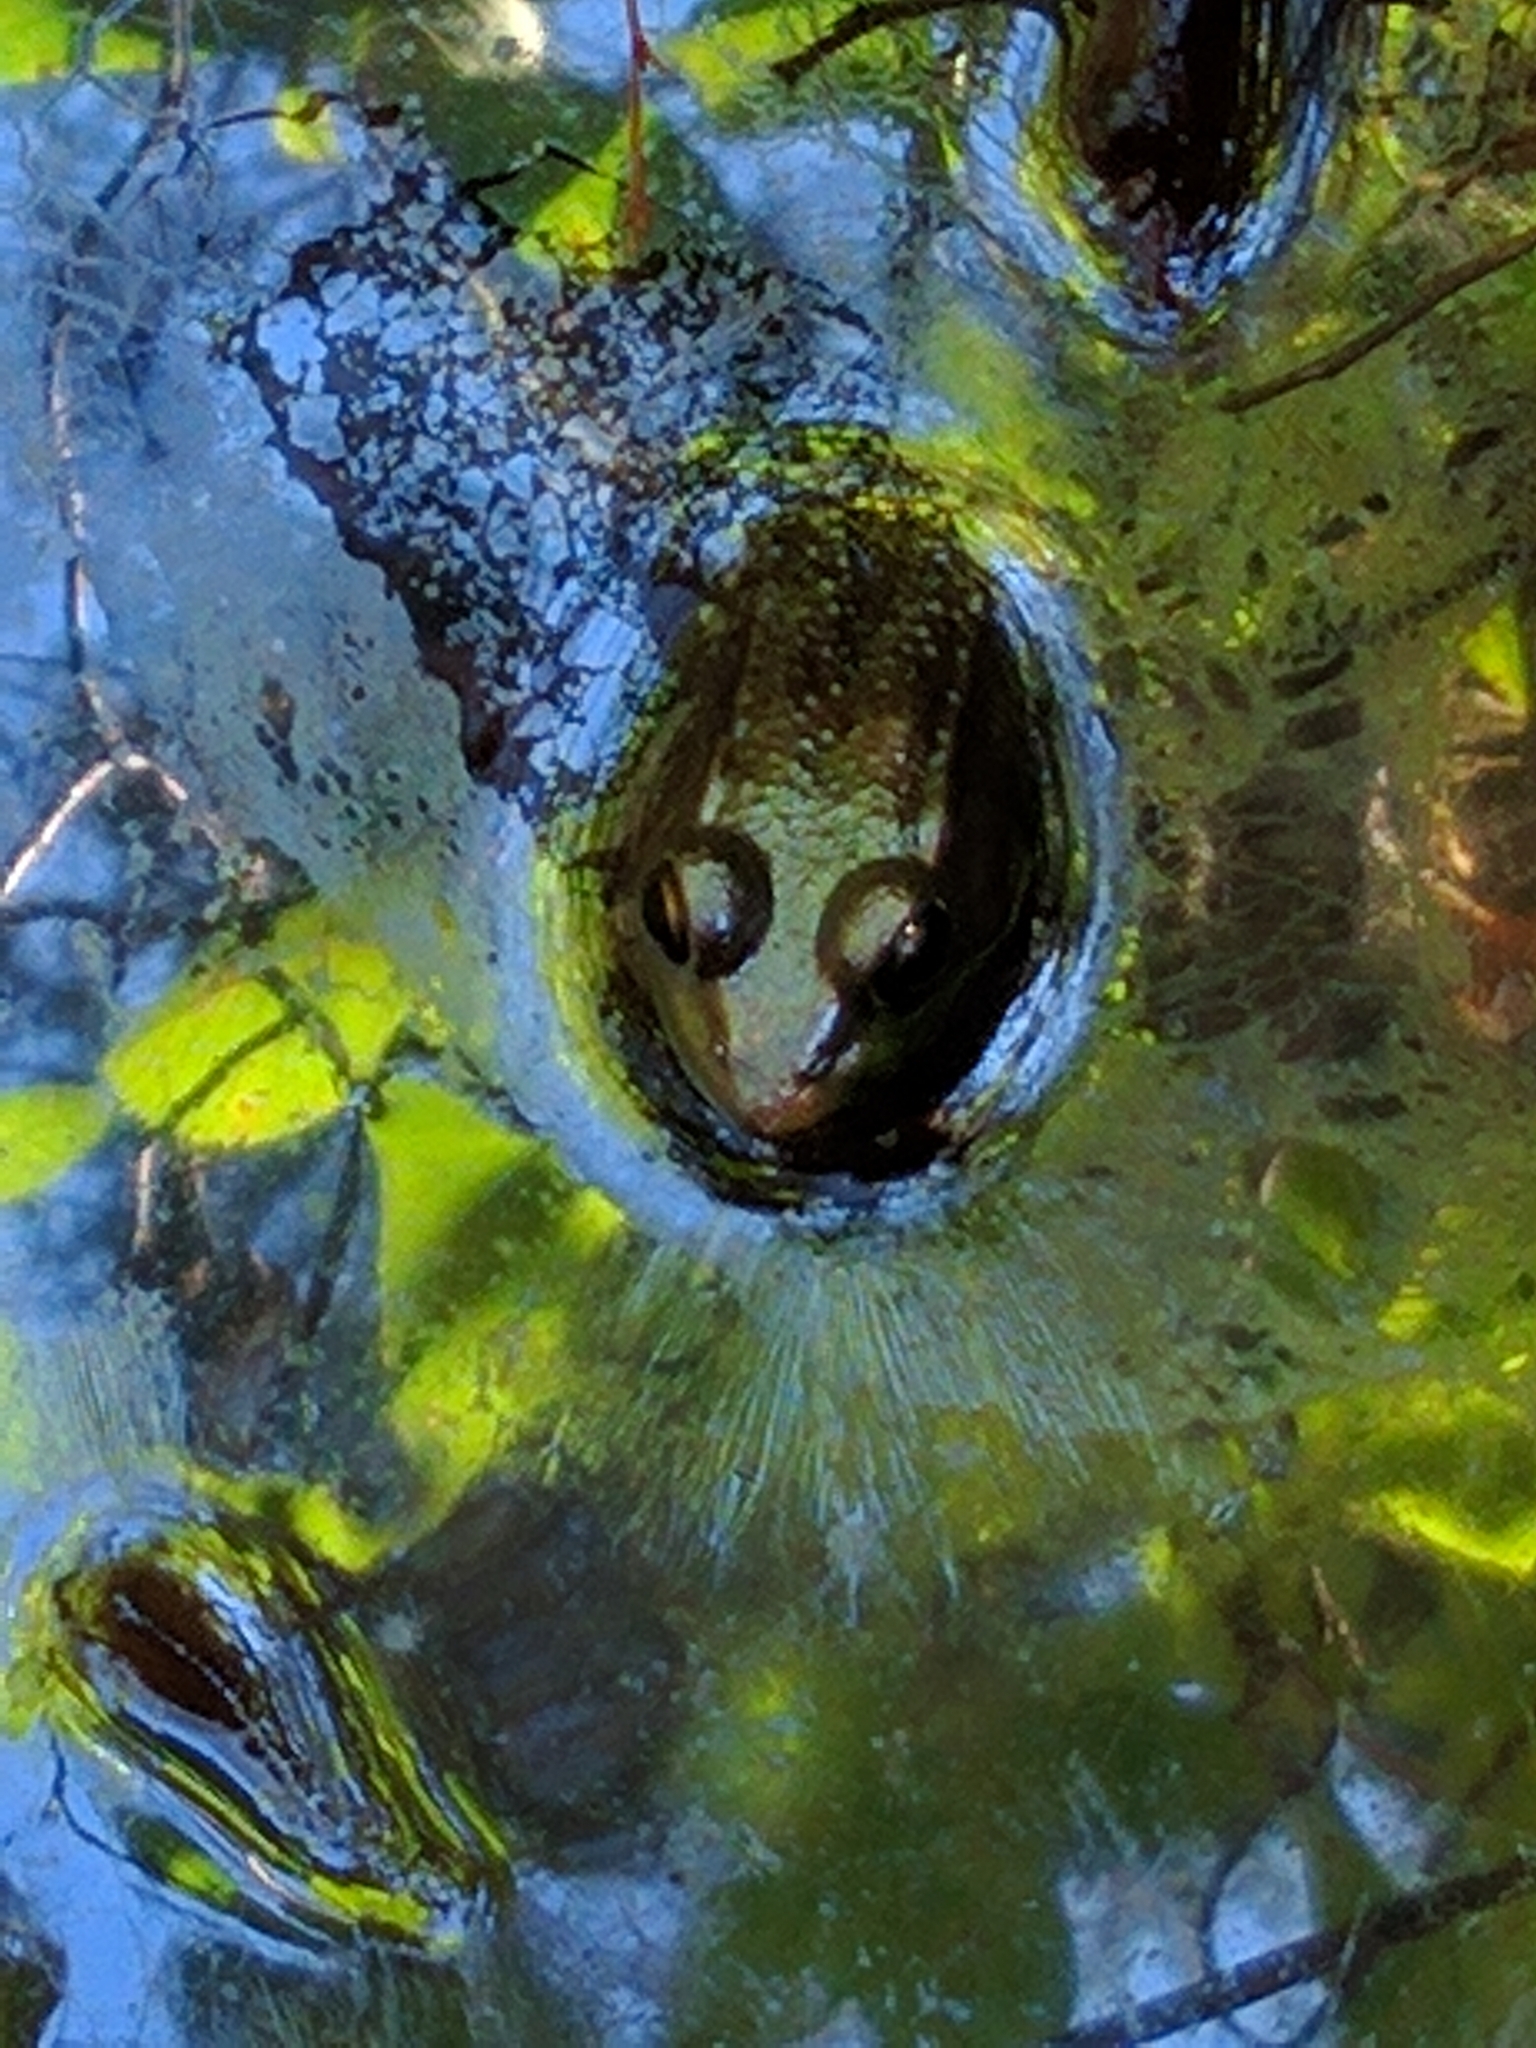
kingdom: Animalia
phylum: Chordata
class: Amphibia
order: Anura
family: Ranidae
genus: Lithobates
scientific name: Lithobates clamitans
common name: Green frog
